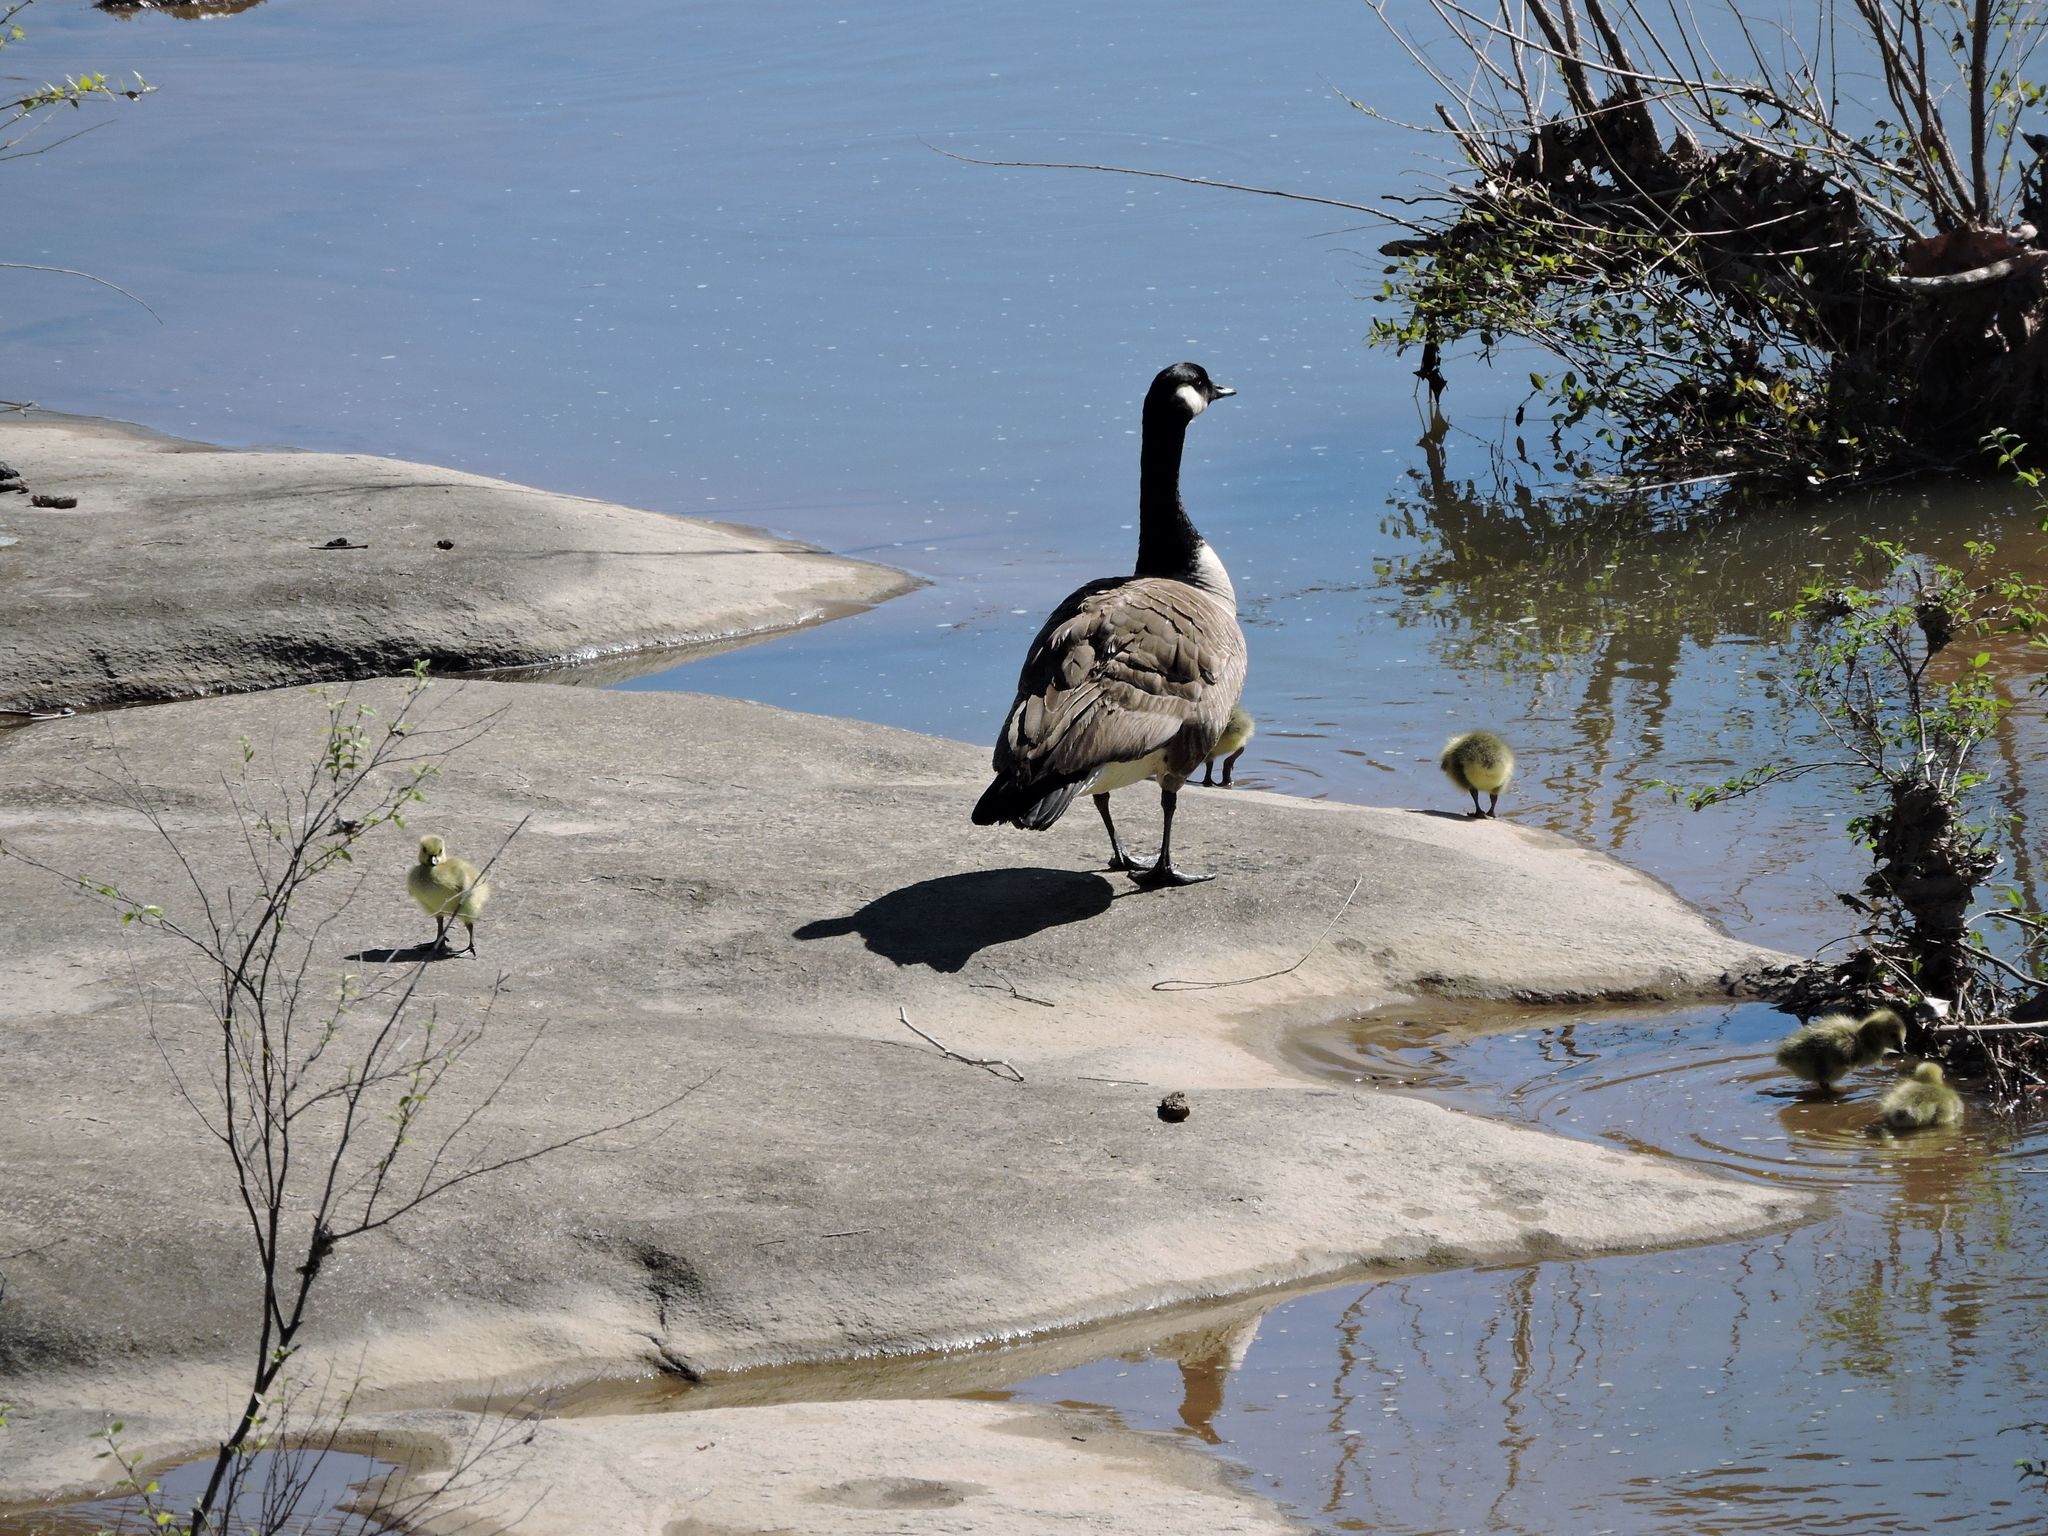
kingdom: Animalia
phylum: Chordata
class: Aves
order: Anseriformes
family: Anatidae
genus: Branta
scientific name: Branta canadensis
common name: Canada goose
